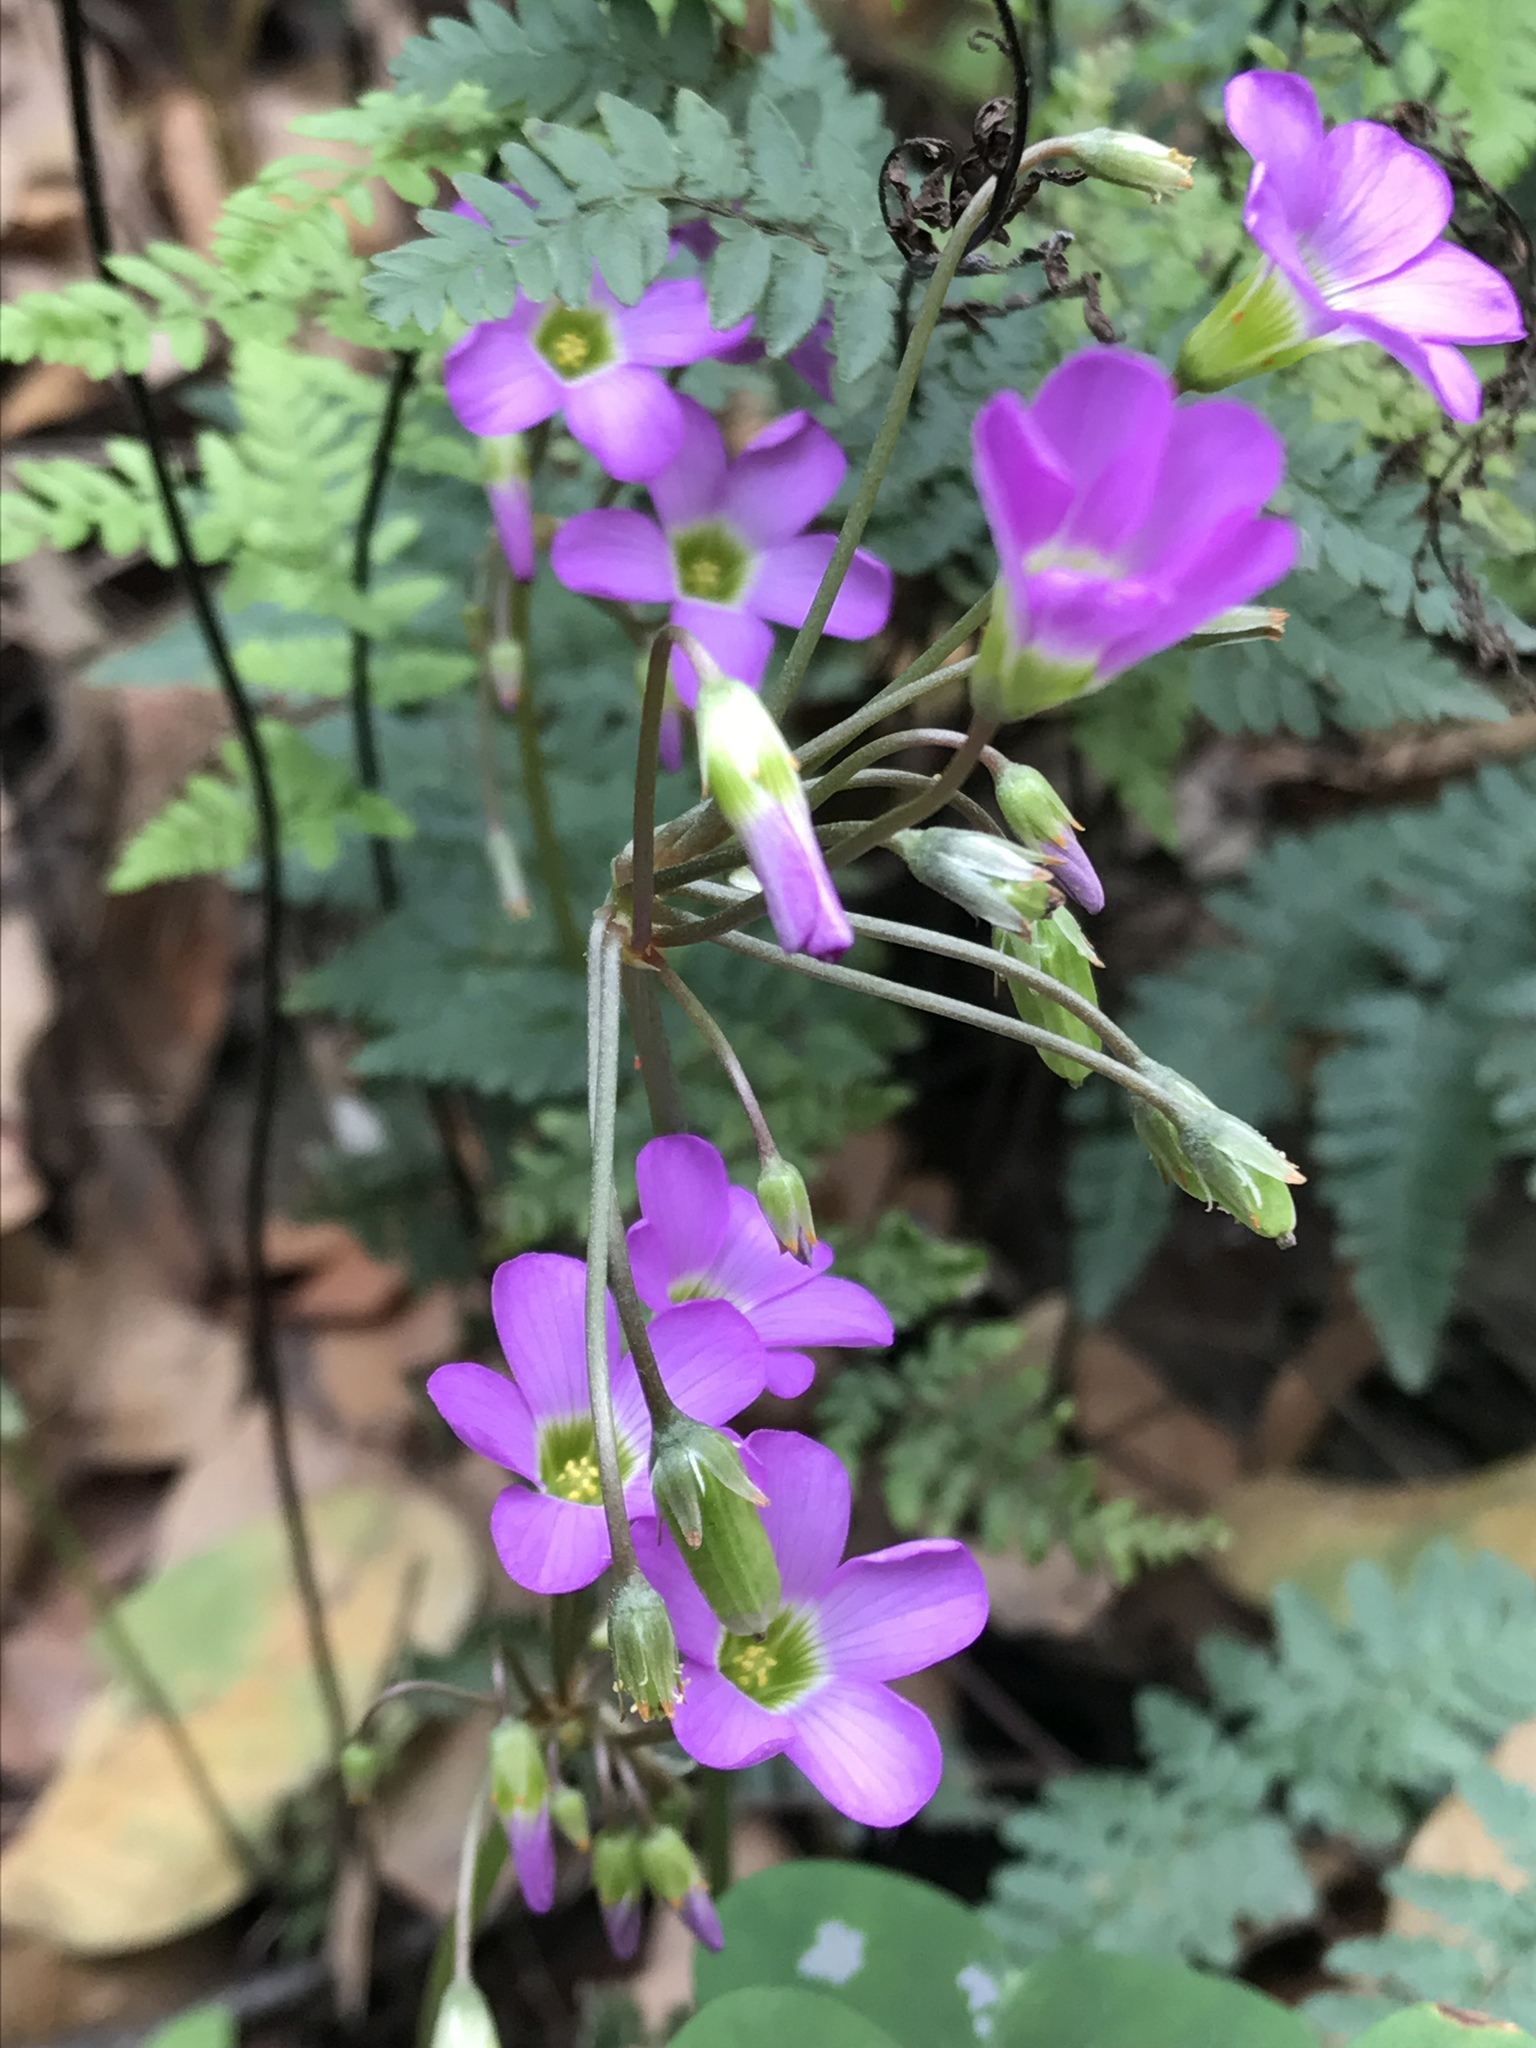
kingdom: Plantae
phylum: Tracheophyta
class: Magnoliopsida
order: Oxalidales
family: Oxalidaceae
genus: Oxalis
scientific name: Oxalis violacea
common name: Violet wood-sorrel
